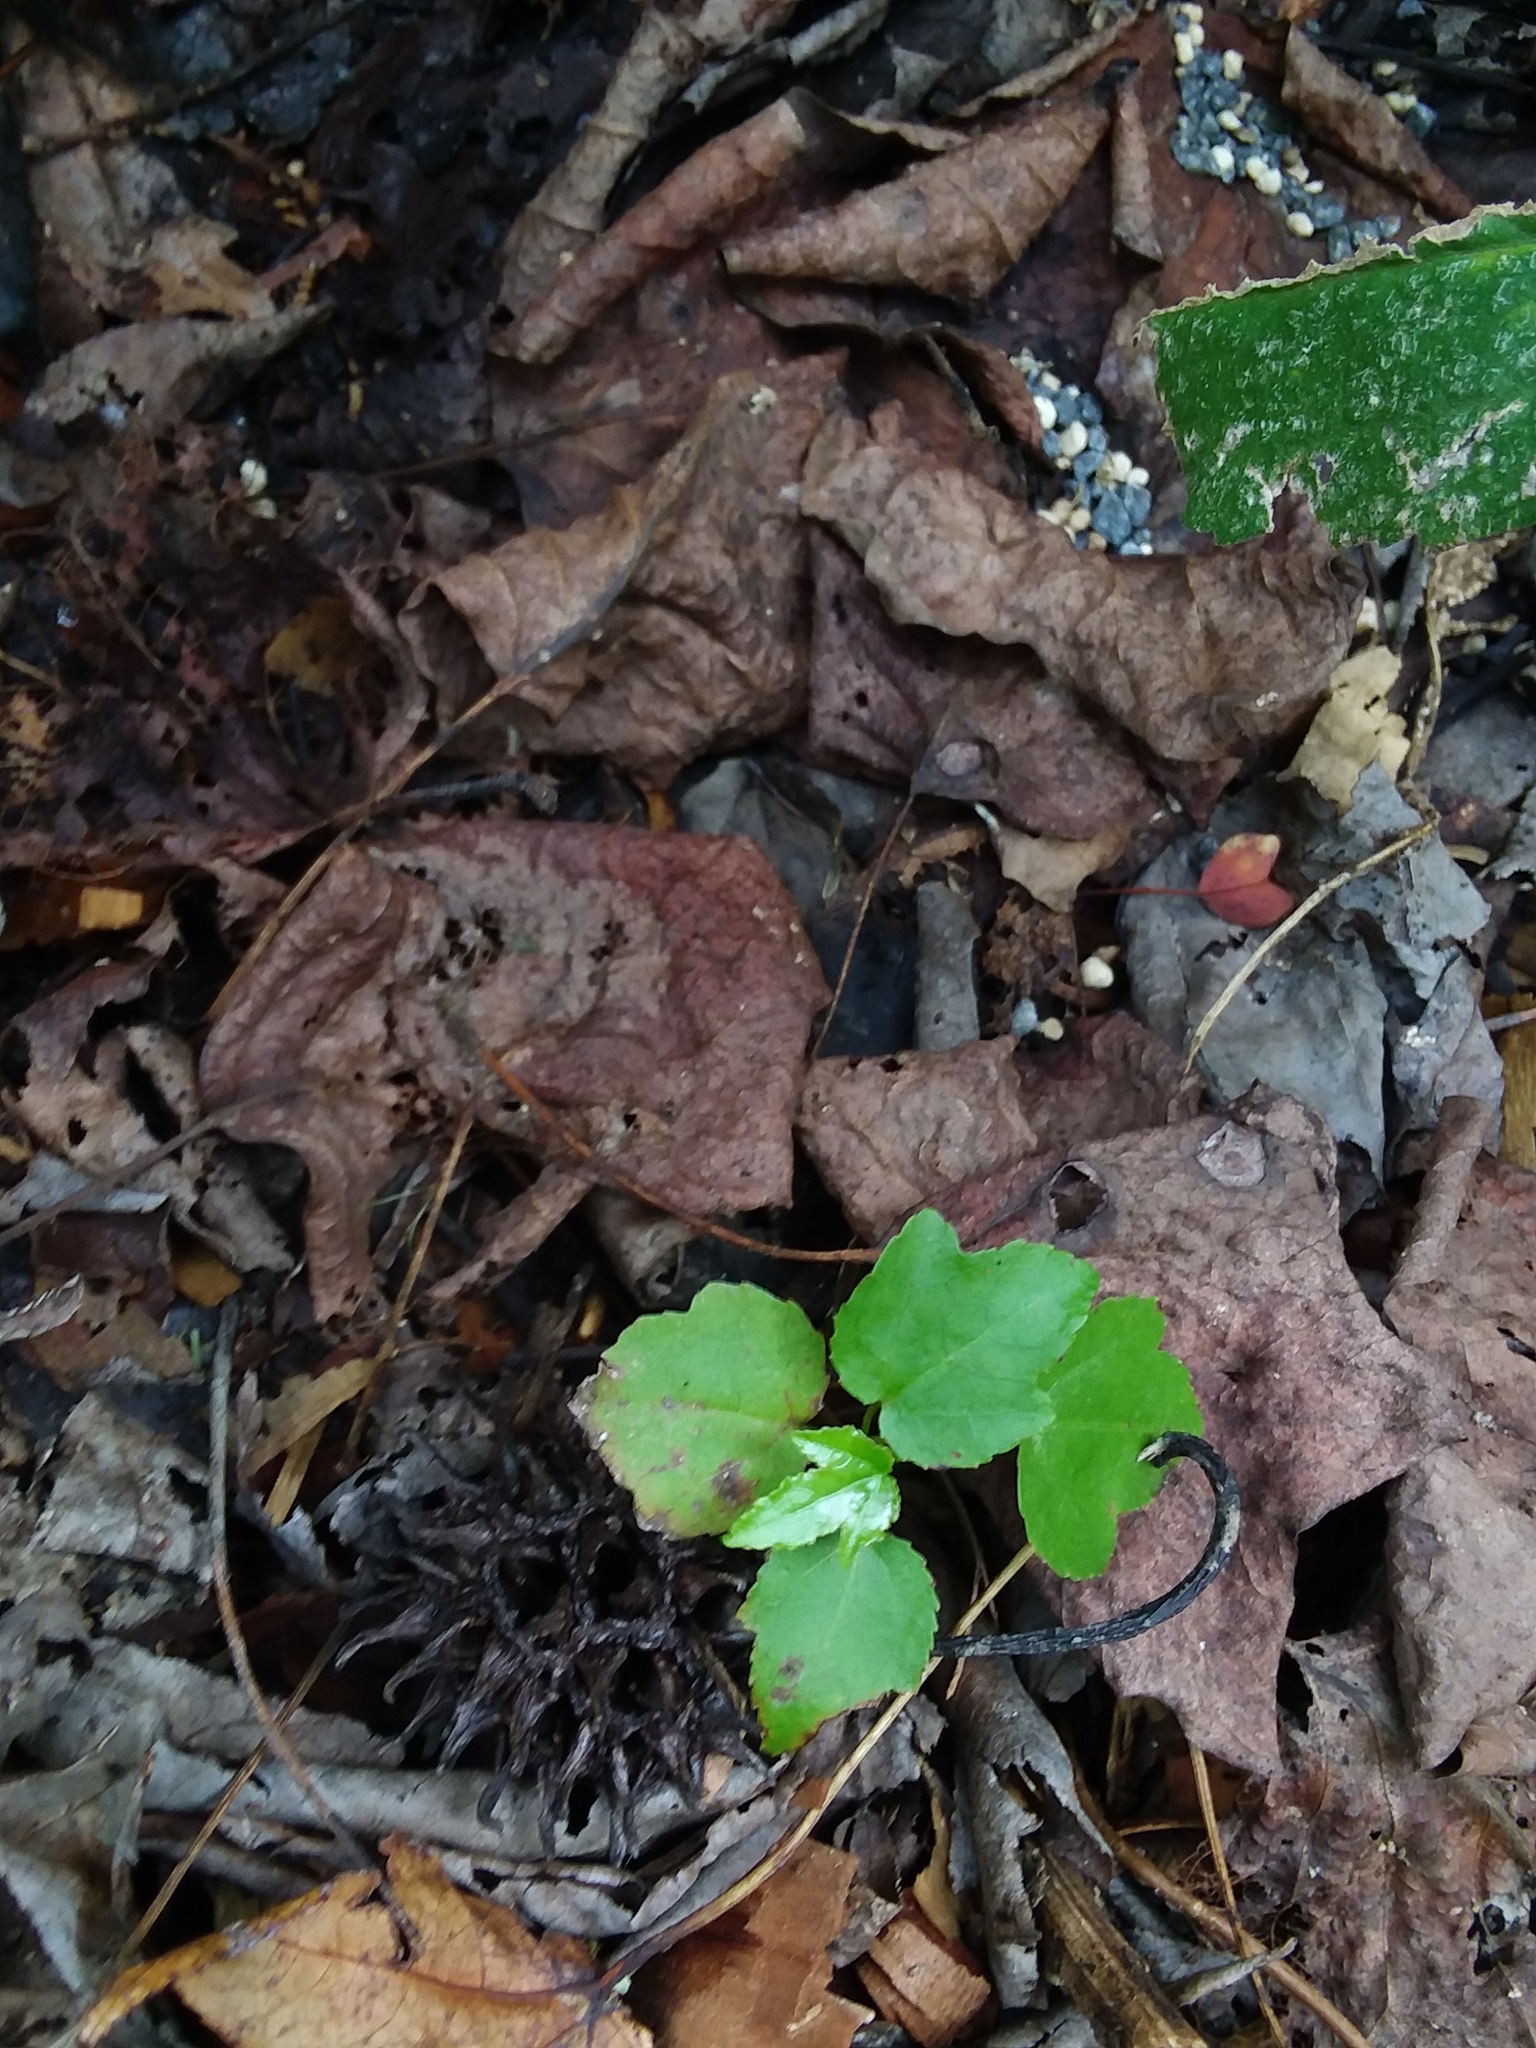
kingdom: Plantae
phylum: Tracheophyta
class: Magnoliopsida
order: Saxifragales
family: Altingiaceae
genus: Liquidambar
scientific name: Liquidambar styraciflua
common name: Sweet gum
